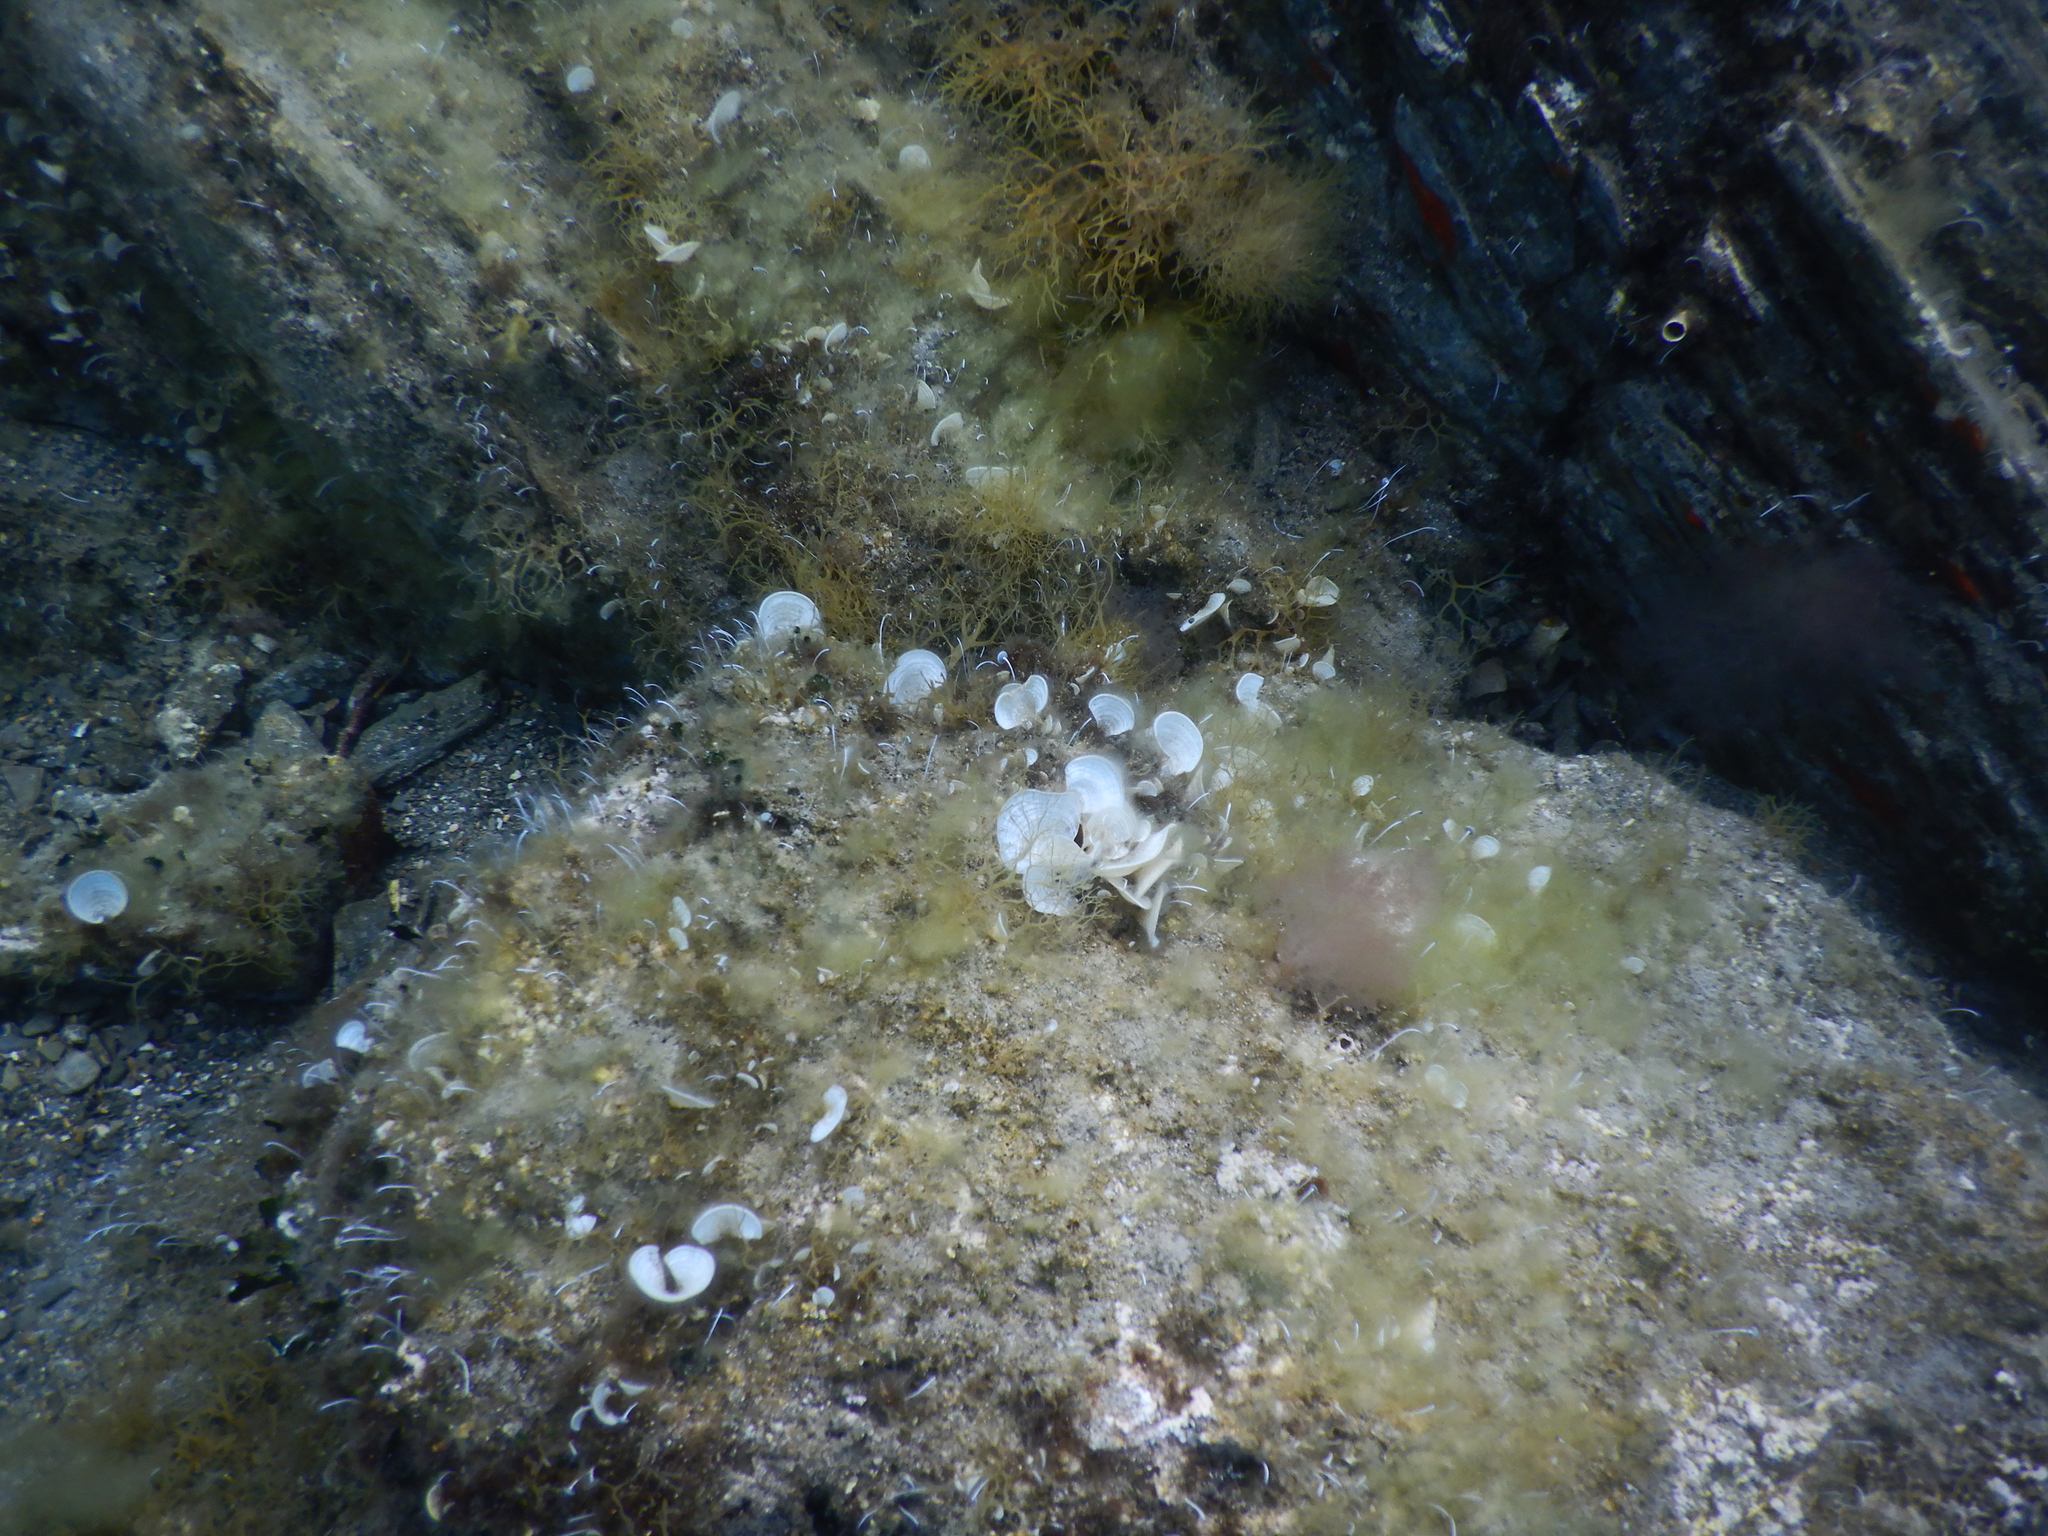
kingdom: Chromista
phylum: Ochrophyta
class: Phaeophyceae
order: Dictyotales
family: Dictyotaceae
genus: Padina
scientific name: Padina pavonica
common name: Turkey feather alga
